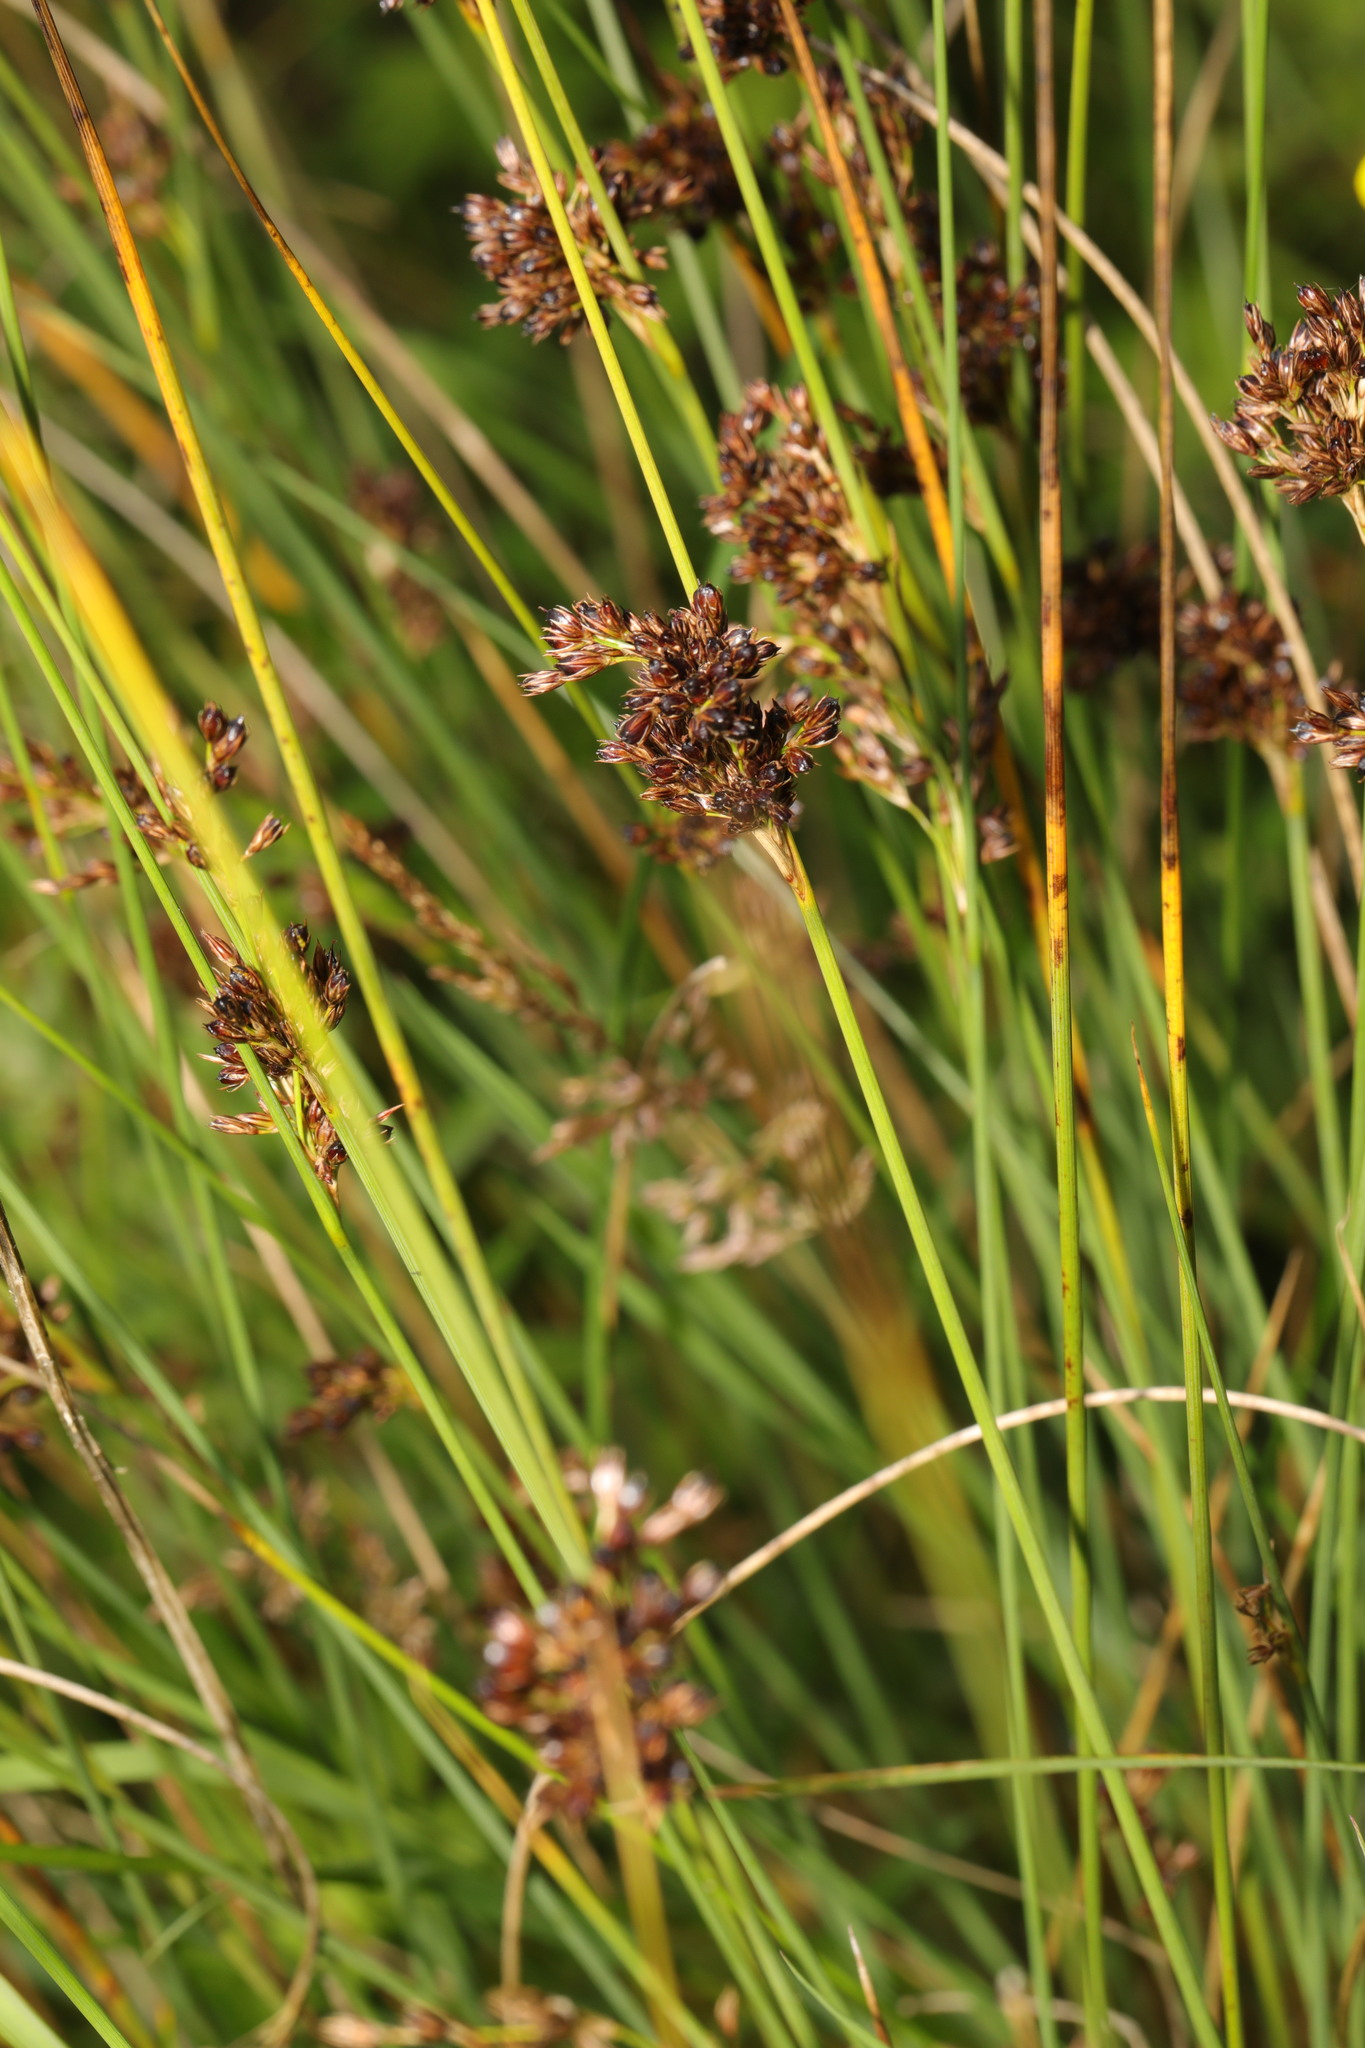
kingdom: Plantae
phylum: Tracheophyta
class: Liliopsida
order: Poales
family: Juncaceae
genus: Juncus
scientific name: Juncus inflexus
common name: Hard rush
